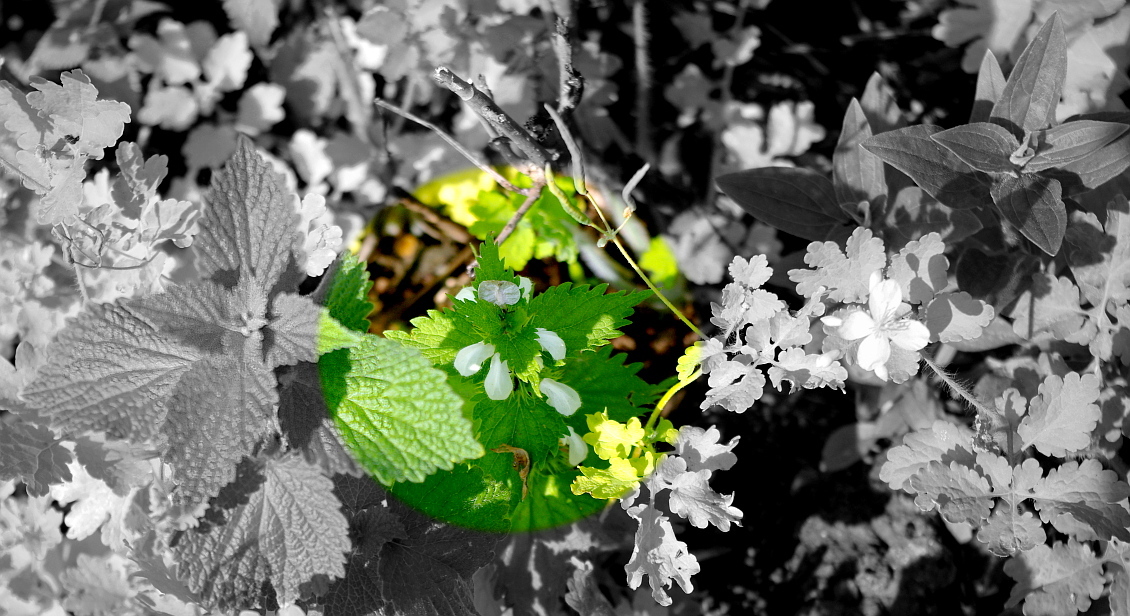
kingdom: Plantae
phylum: Tracheophyta
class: Magnoliopsida
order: Lamiales
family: Lamiaceae
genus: Lamium
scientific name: Lamium album
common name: White dead-nettle
